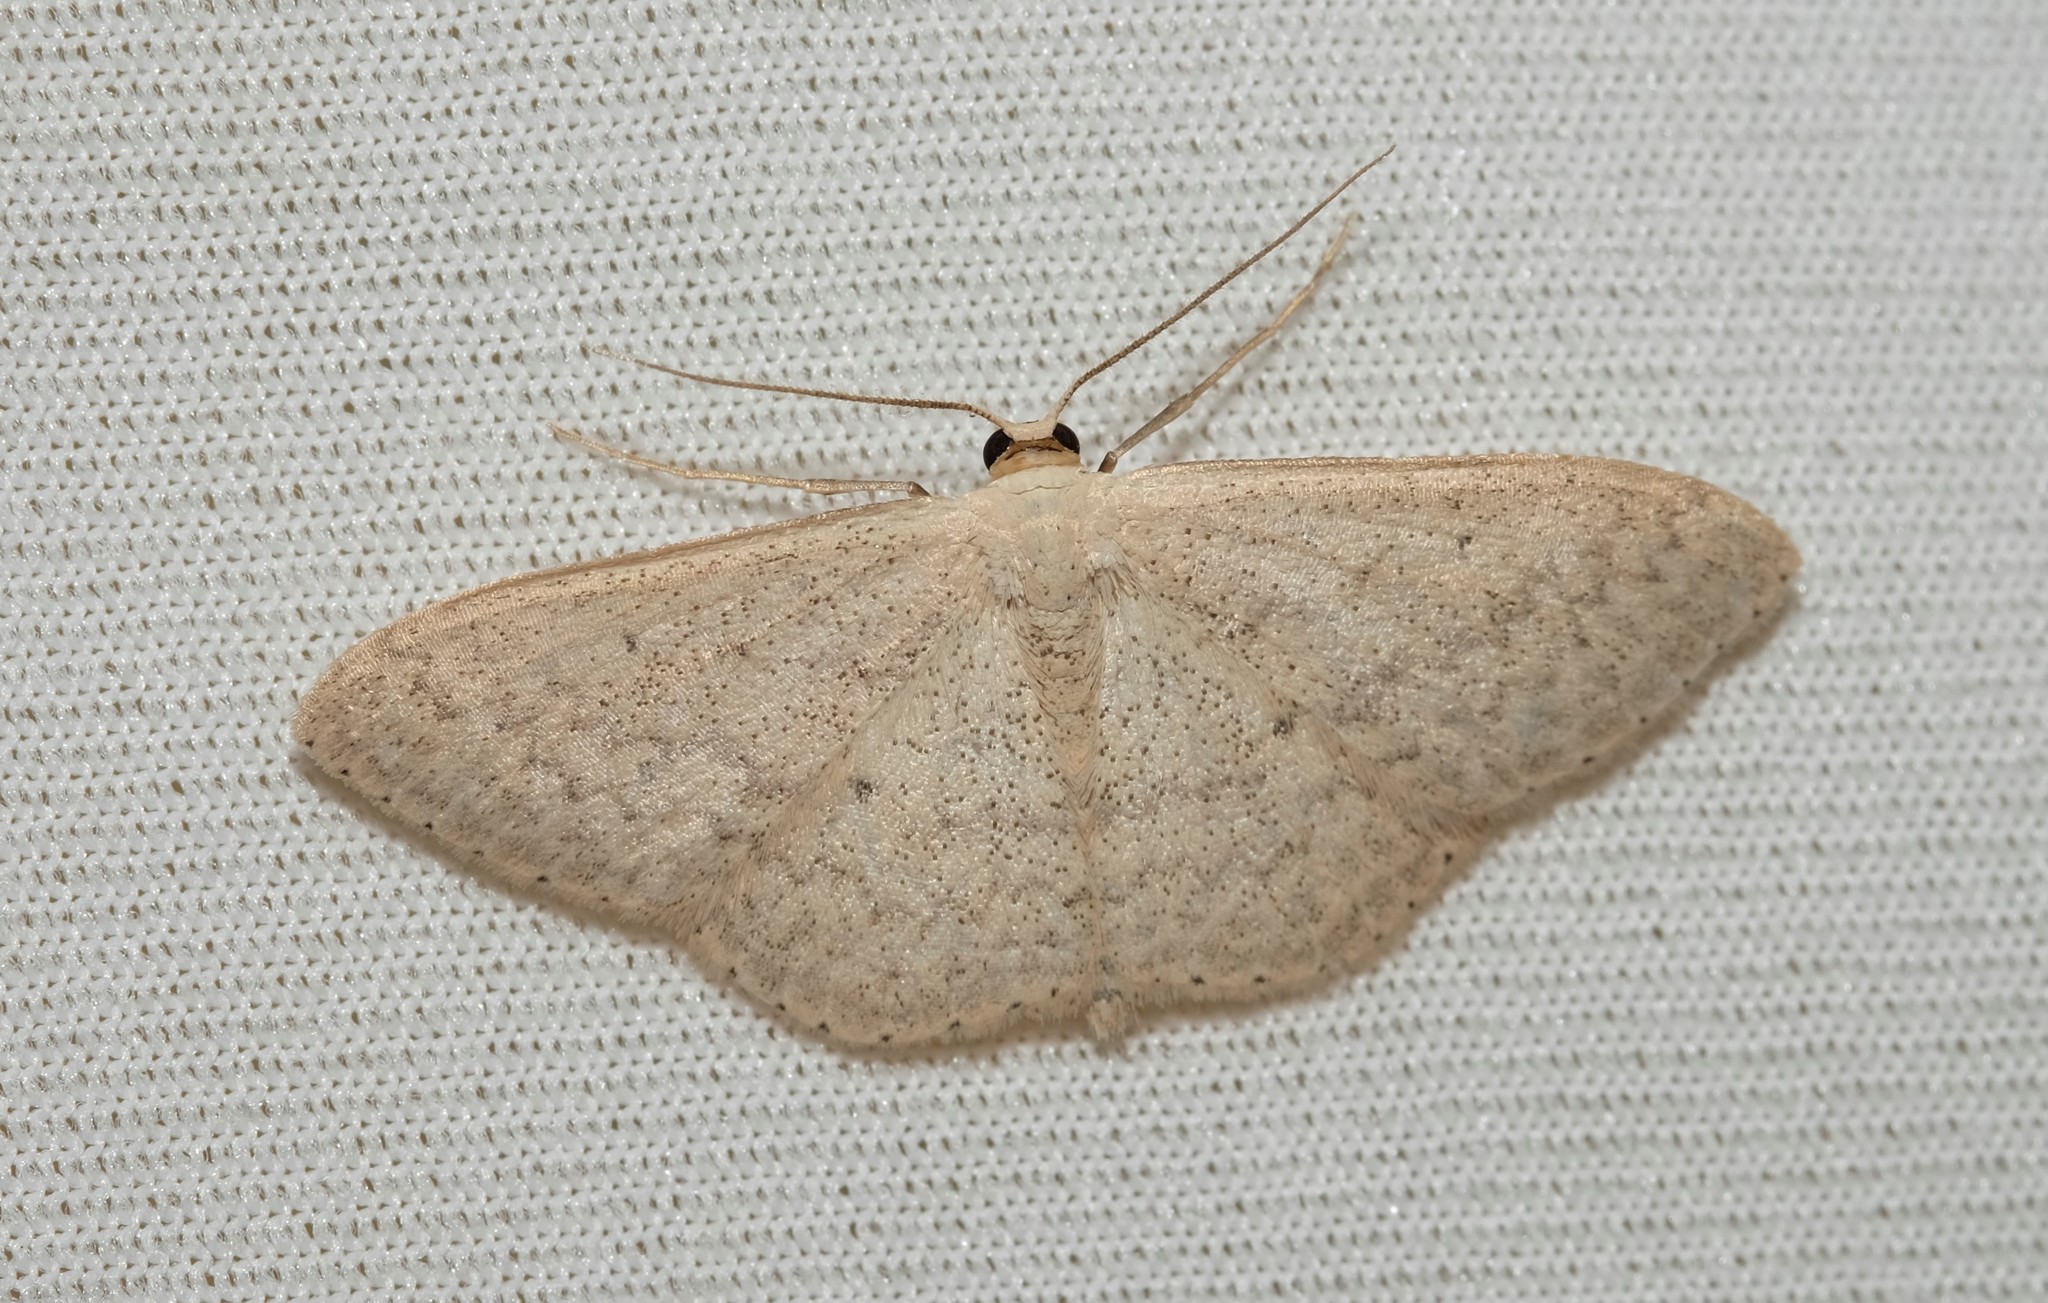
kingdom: Animalia
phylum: Arthropoda
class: Insecta
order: Lepidoptera
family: Geometridae
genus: Scopula
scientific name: Scopula optivata
